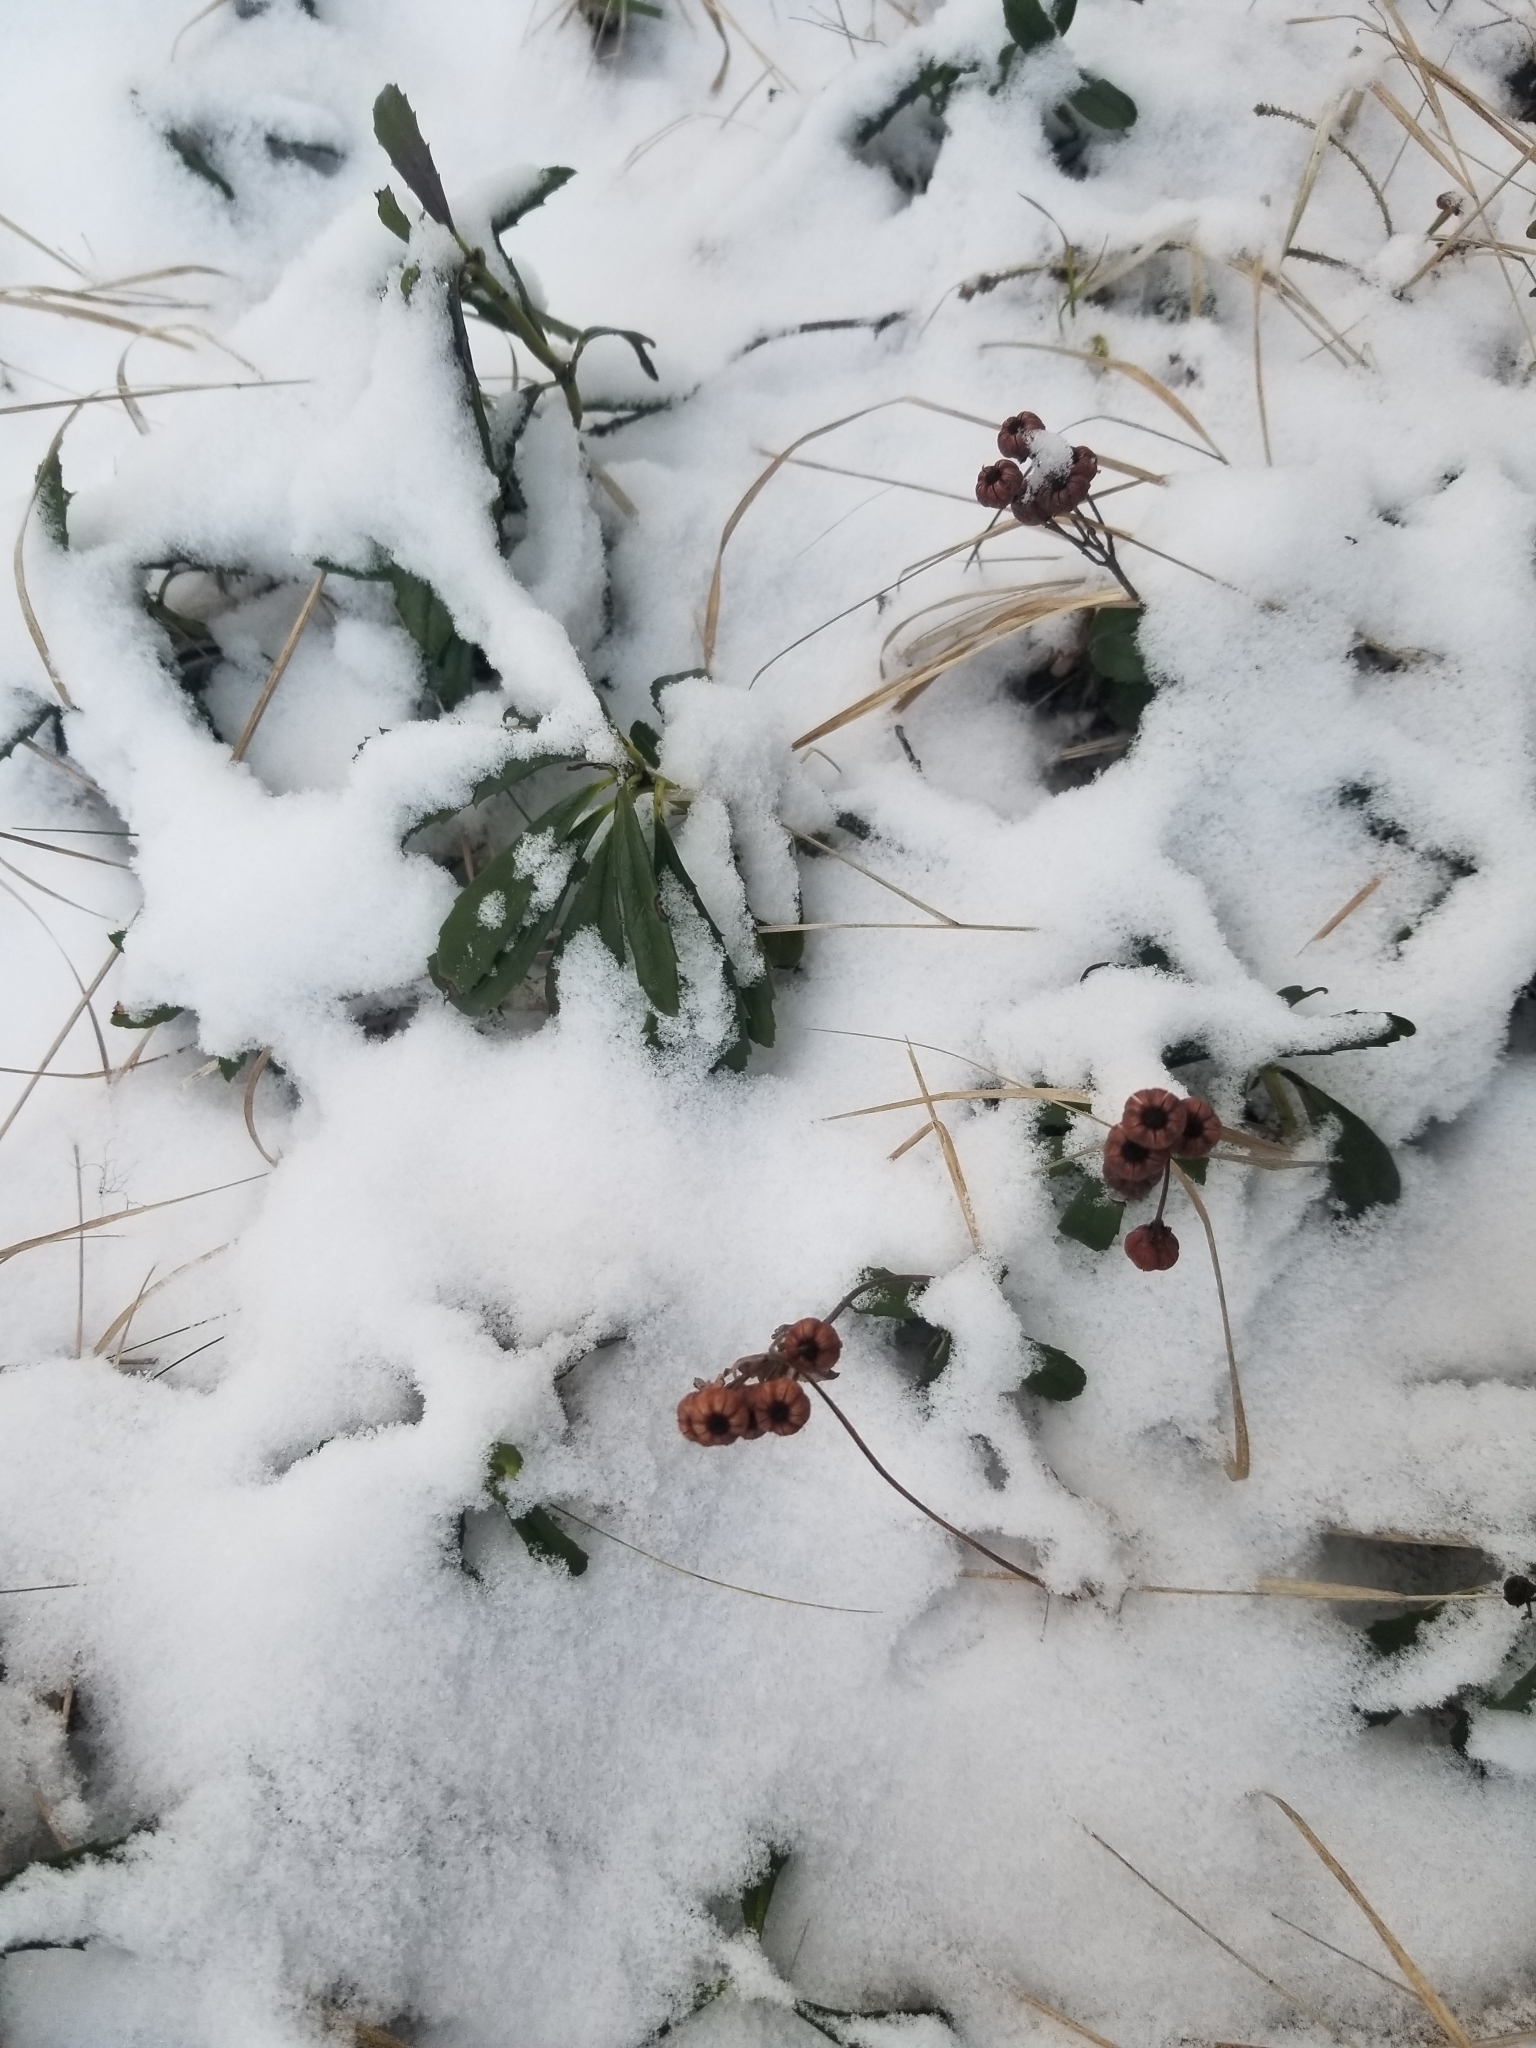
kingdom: Plantae
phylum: Tracheophyta
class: Magnoliopsida
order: Ericales
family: Ericaceae
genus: Chimaphila
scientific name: Chimaphila umbellata
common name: Pipsissewa
